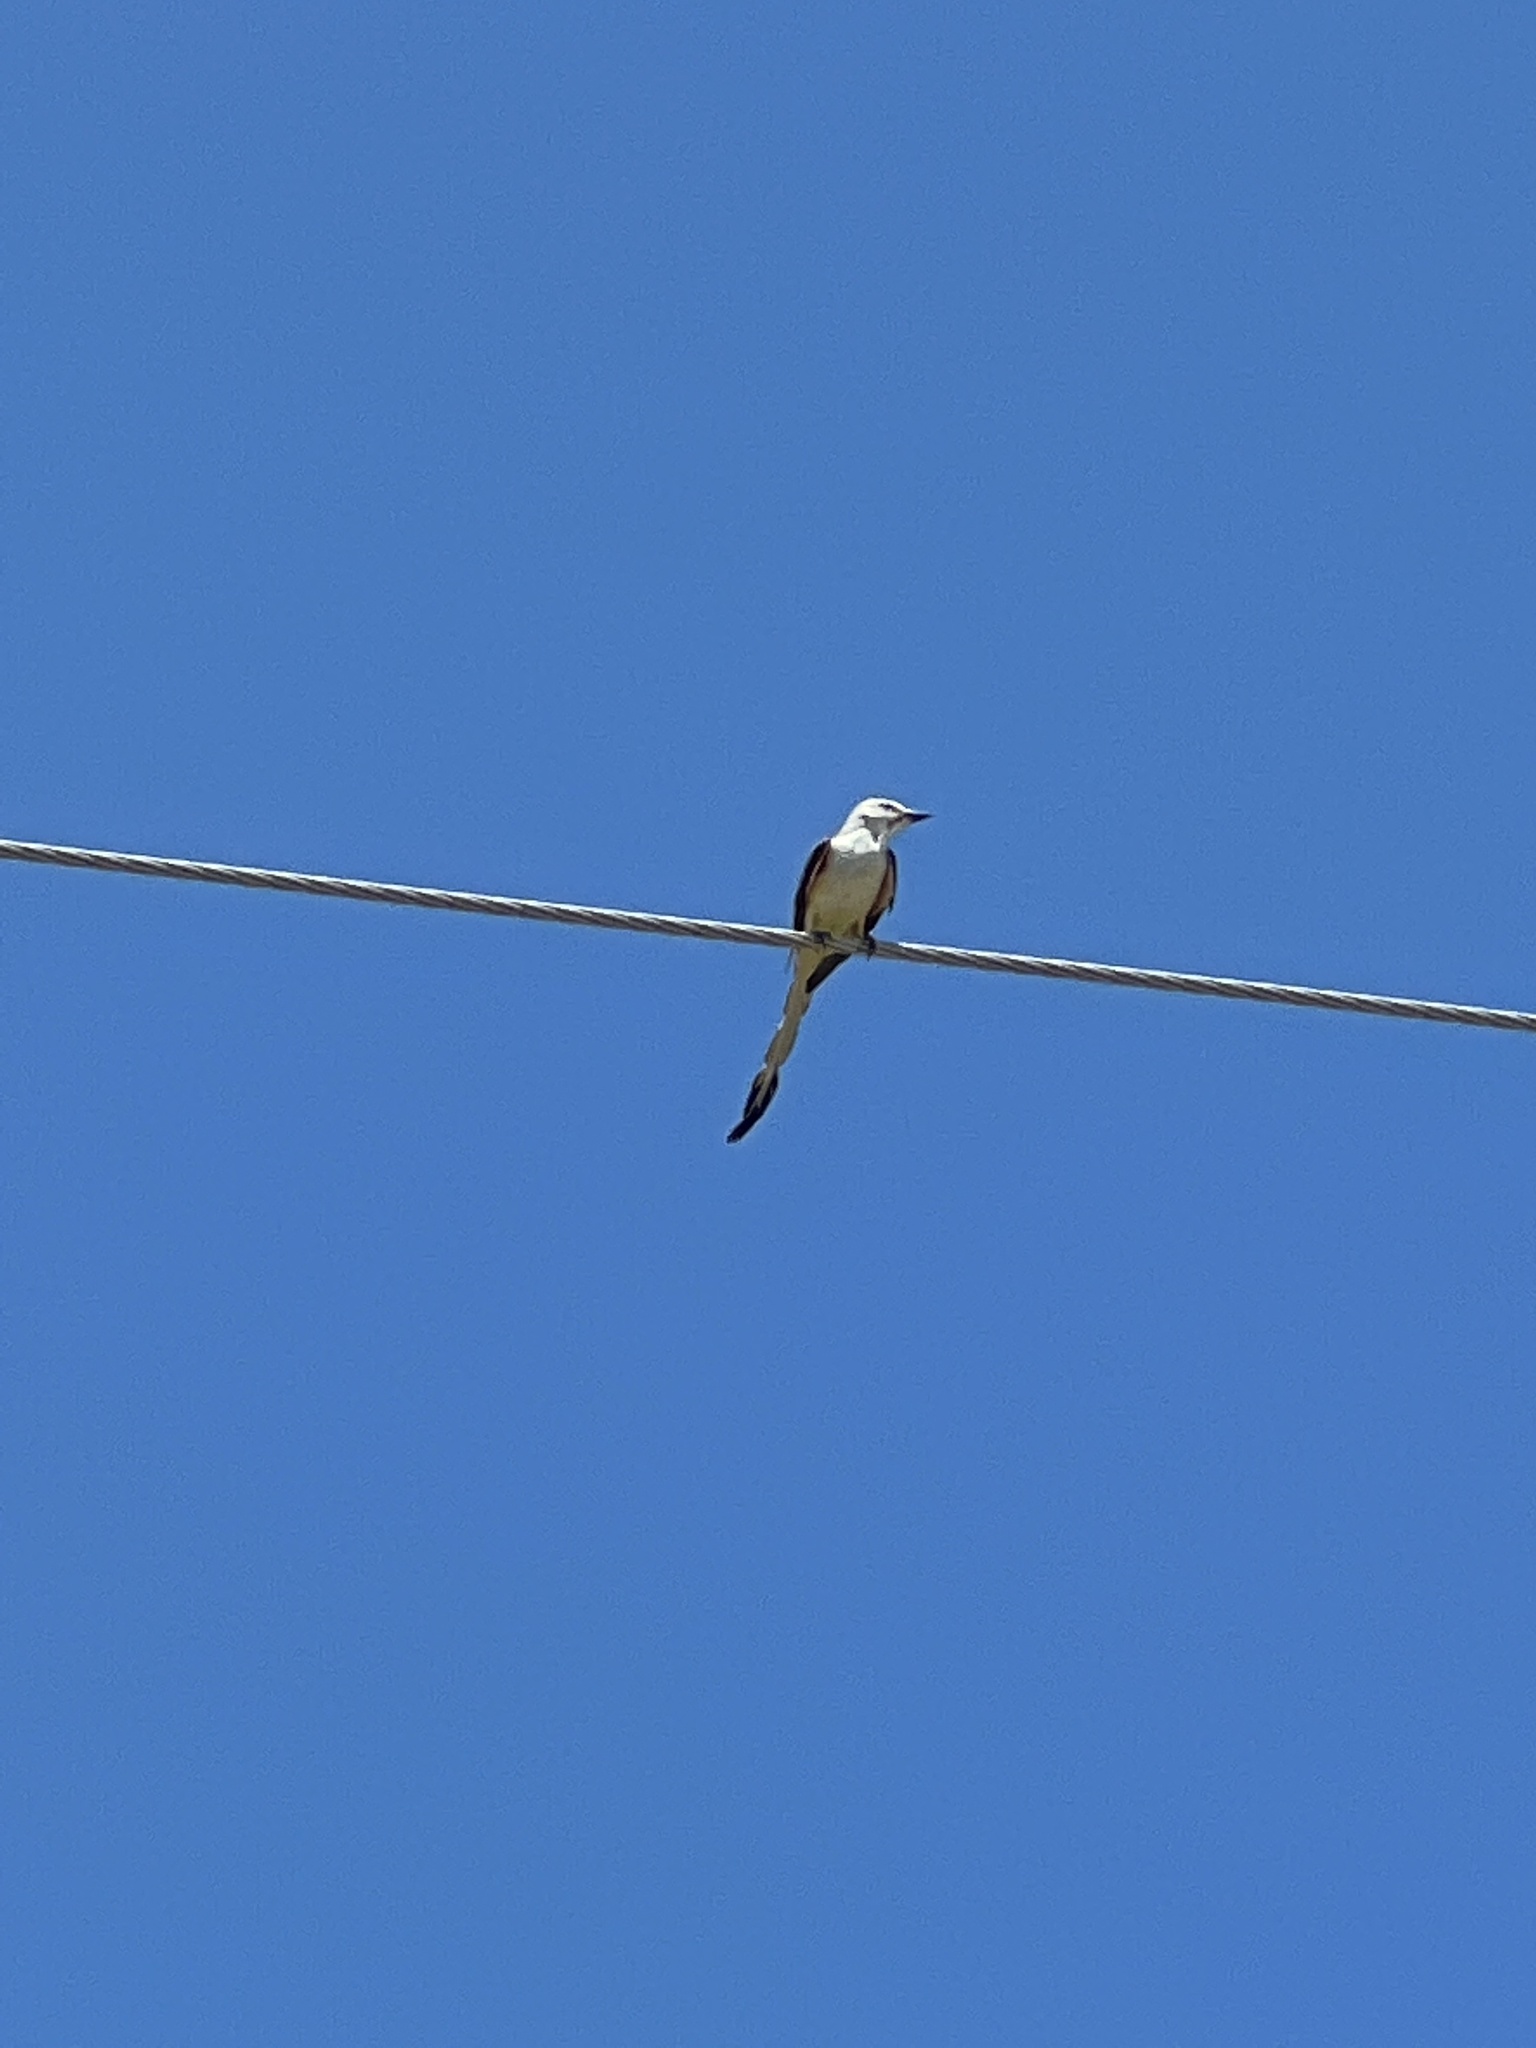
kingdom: Animalia
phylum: Chordata
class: Aves
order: Passeriformes
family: Tyrannidae
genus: Tyrannus
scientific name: Tyrannus forficatus
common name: Scissor-tailed flycatcher
